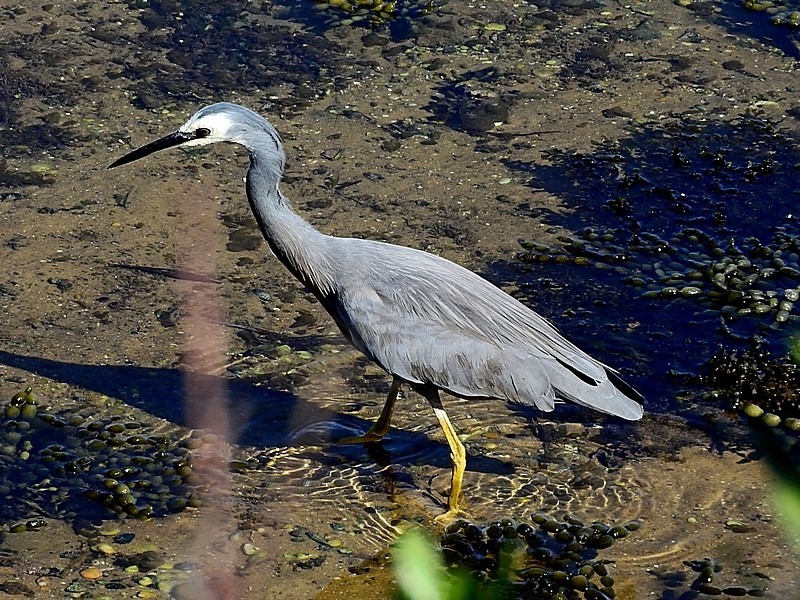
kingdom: Animalia
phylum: Chordata
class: Aves
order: Pelecaniformes
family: Ardeidae
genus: Egretta
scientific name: Egretta novaehollandiae
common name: White-faced heron
